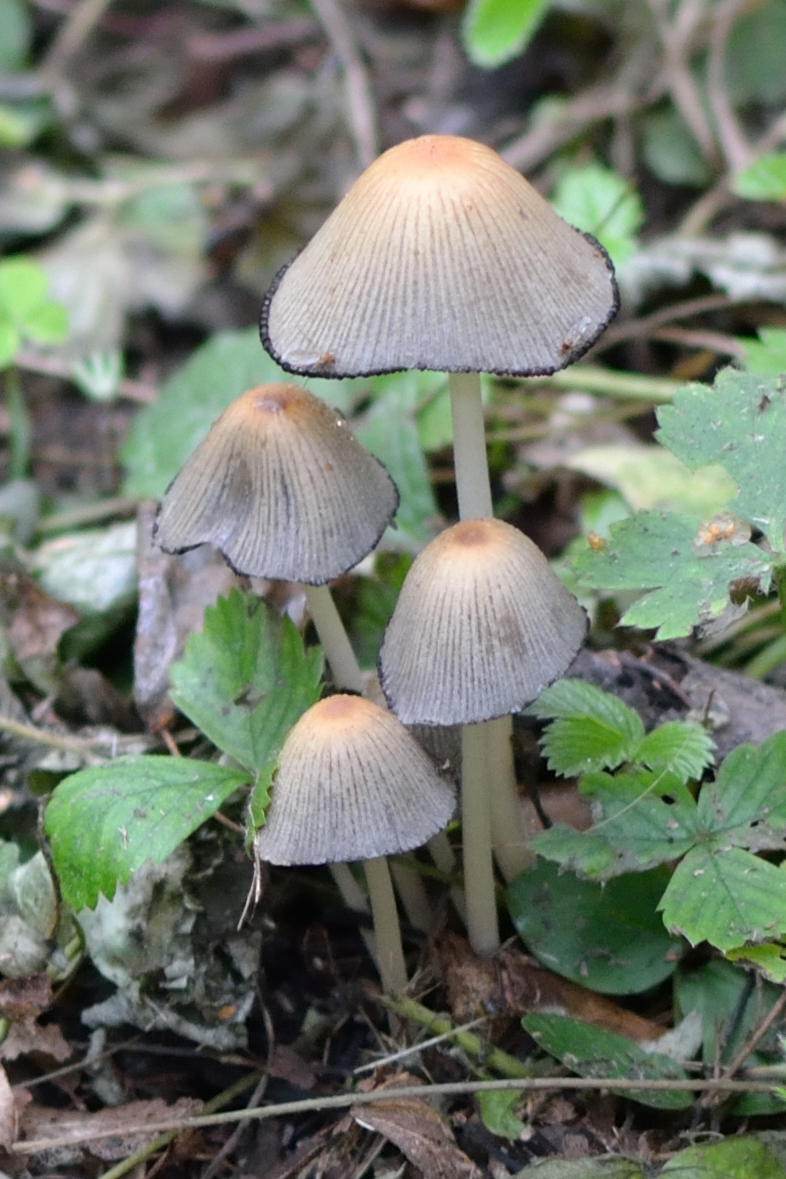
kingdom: Fungi
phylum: Basidiomycota
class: Agaricomycetes
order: Agaricales
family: Psathyrellaceae
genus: Coprinellus
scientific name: Coprinellus micaceus
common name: Glistening ink-cap
